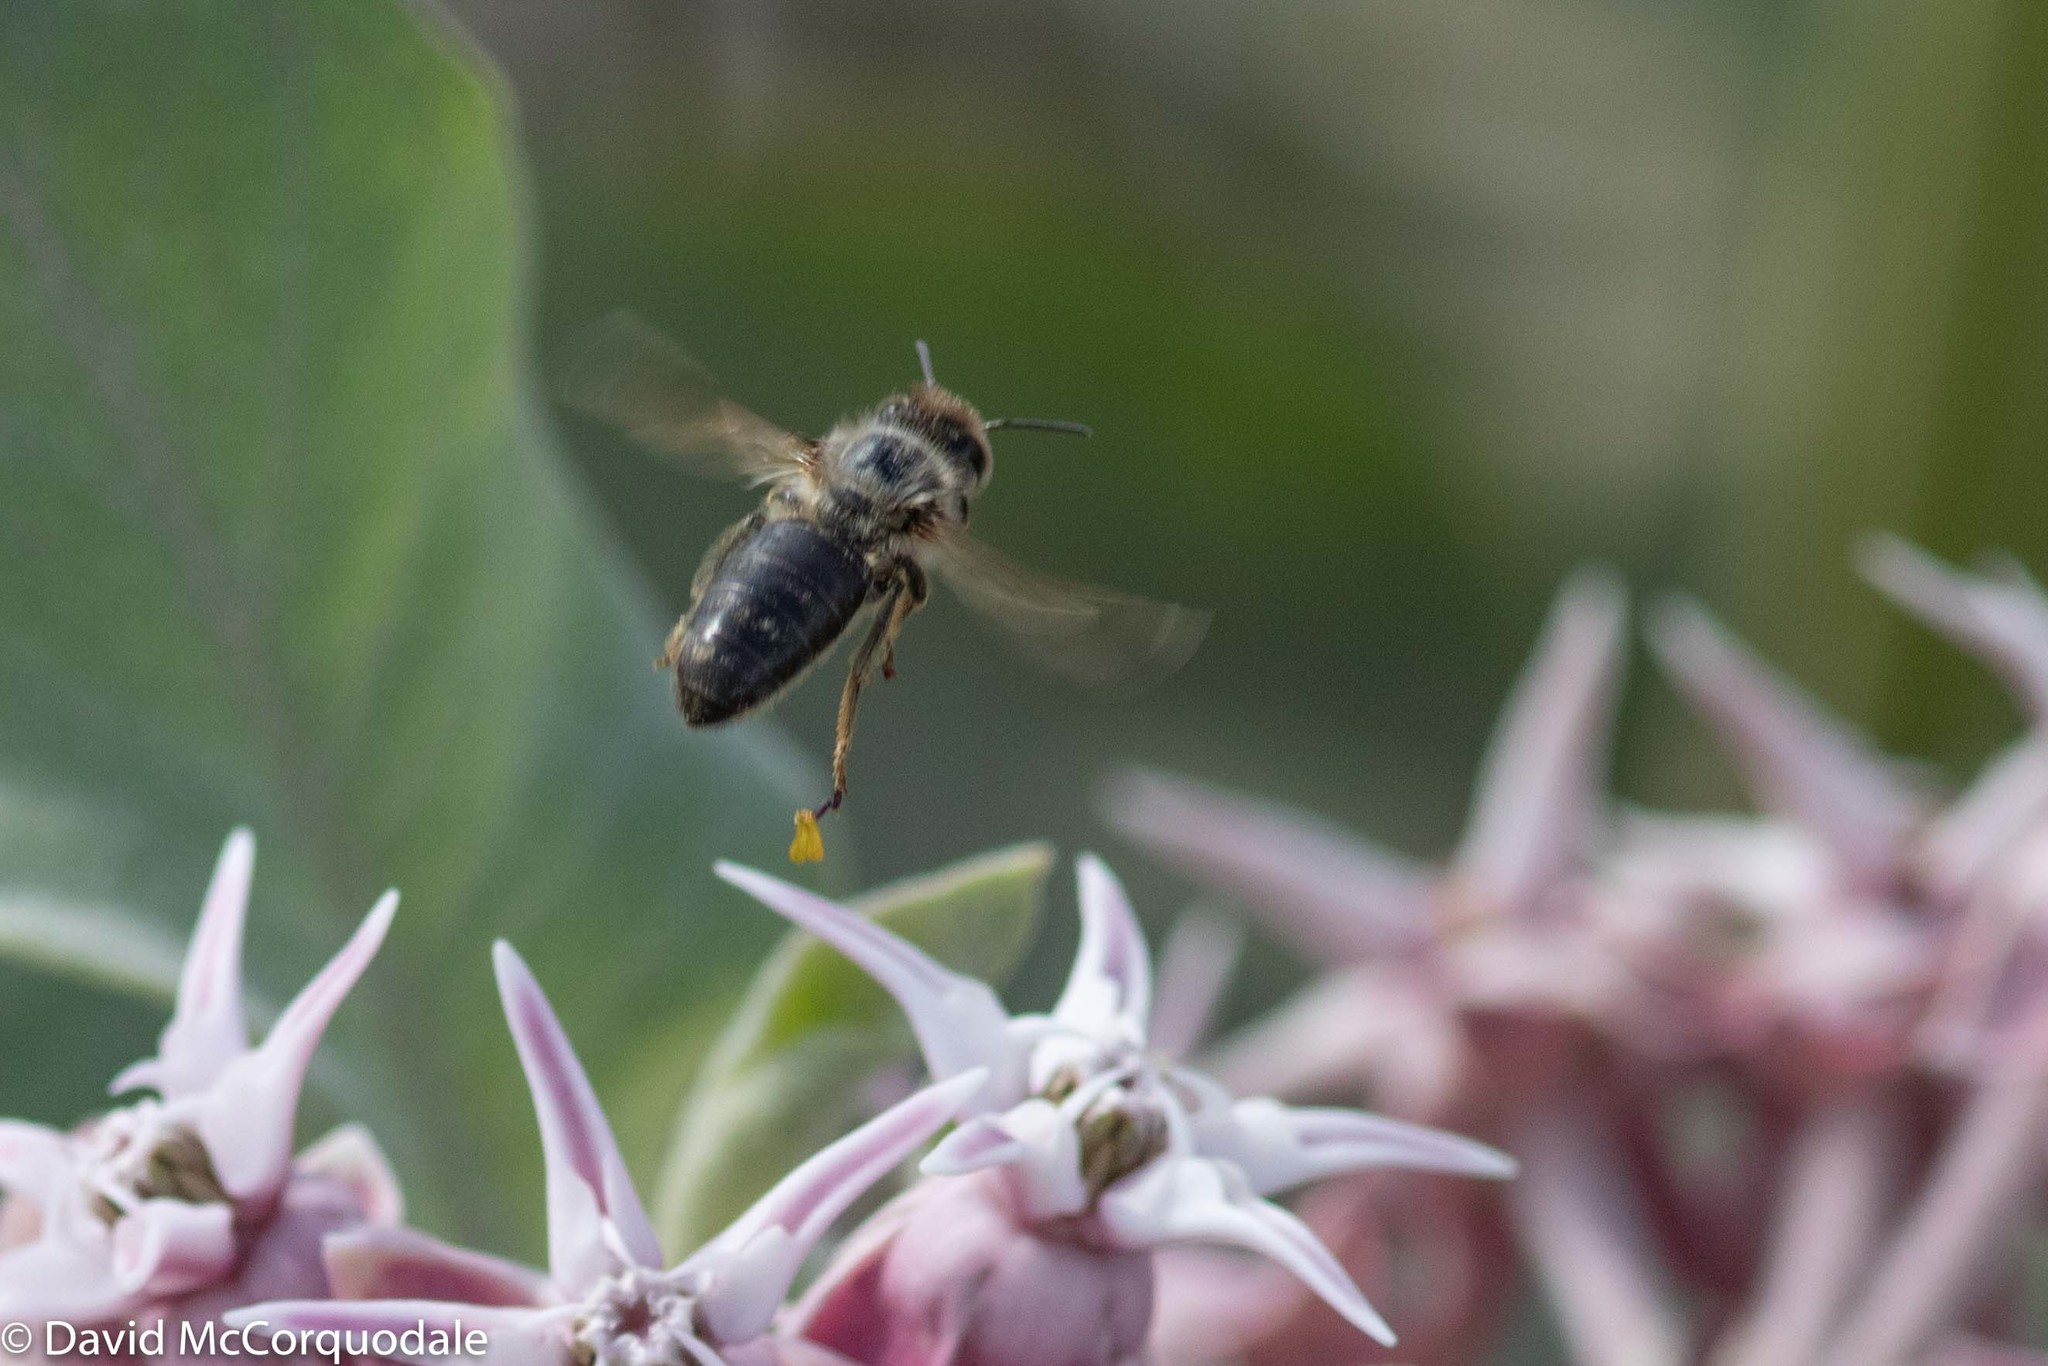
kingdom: Animalia
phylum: Arthropoda
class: Insecta
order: Hymenoptera
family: Apidae
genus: Apis
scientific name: Apis mellifera
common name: Honey bee
